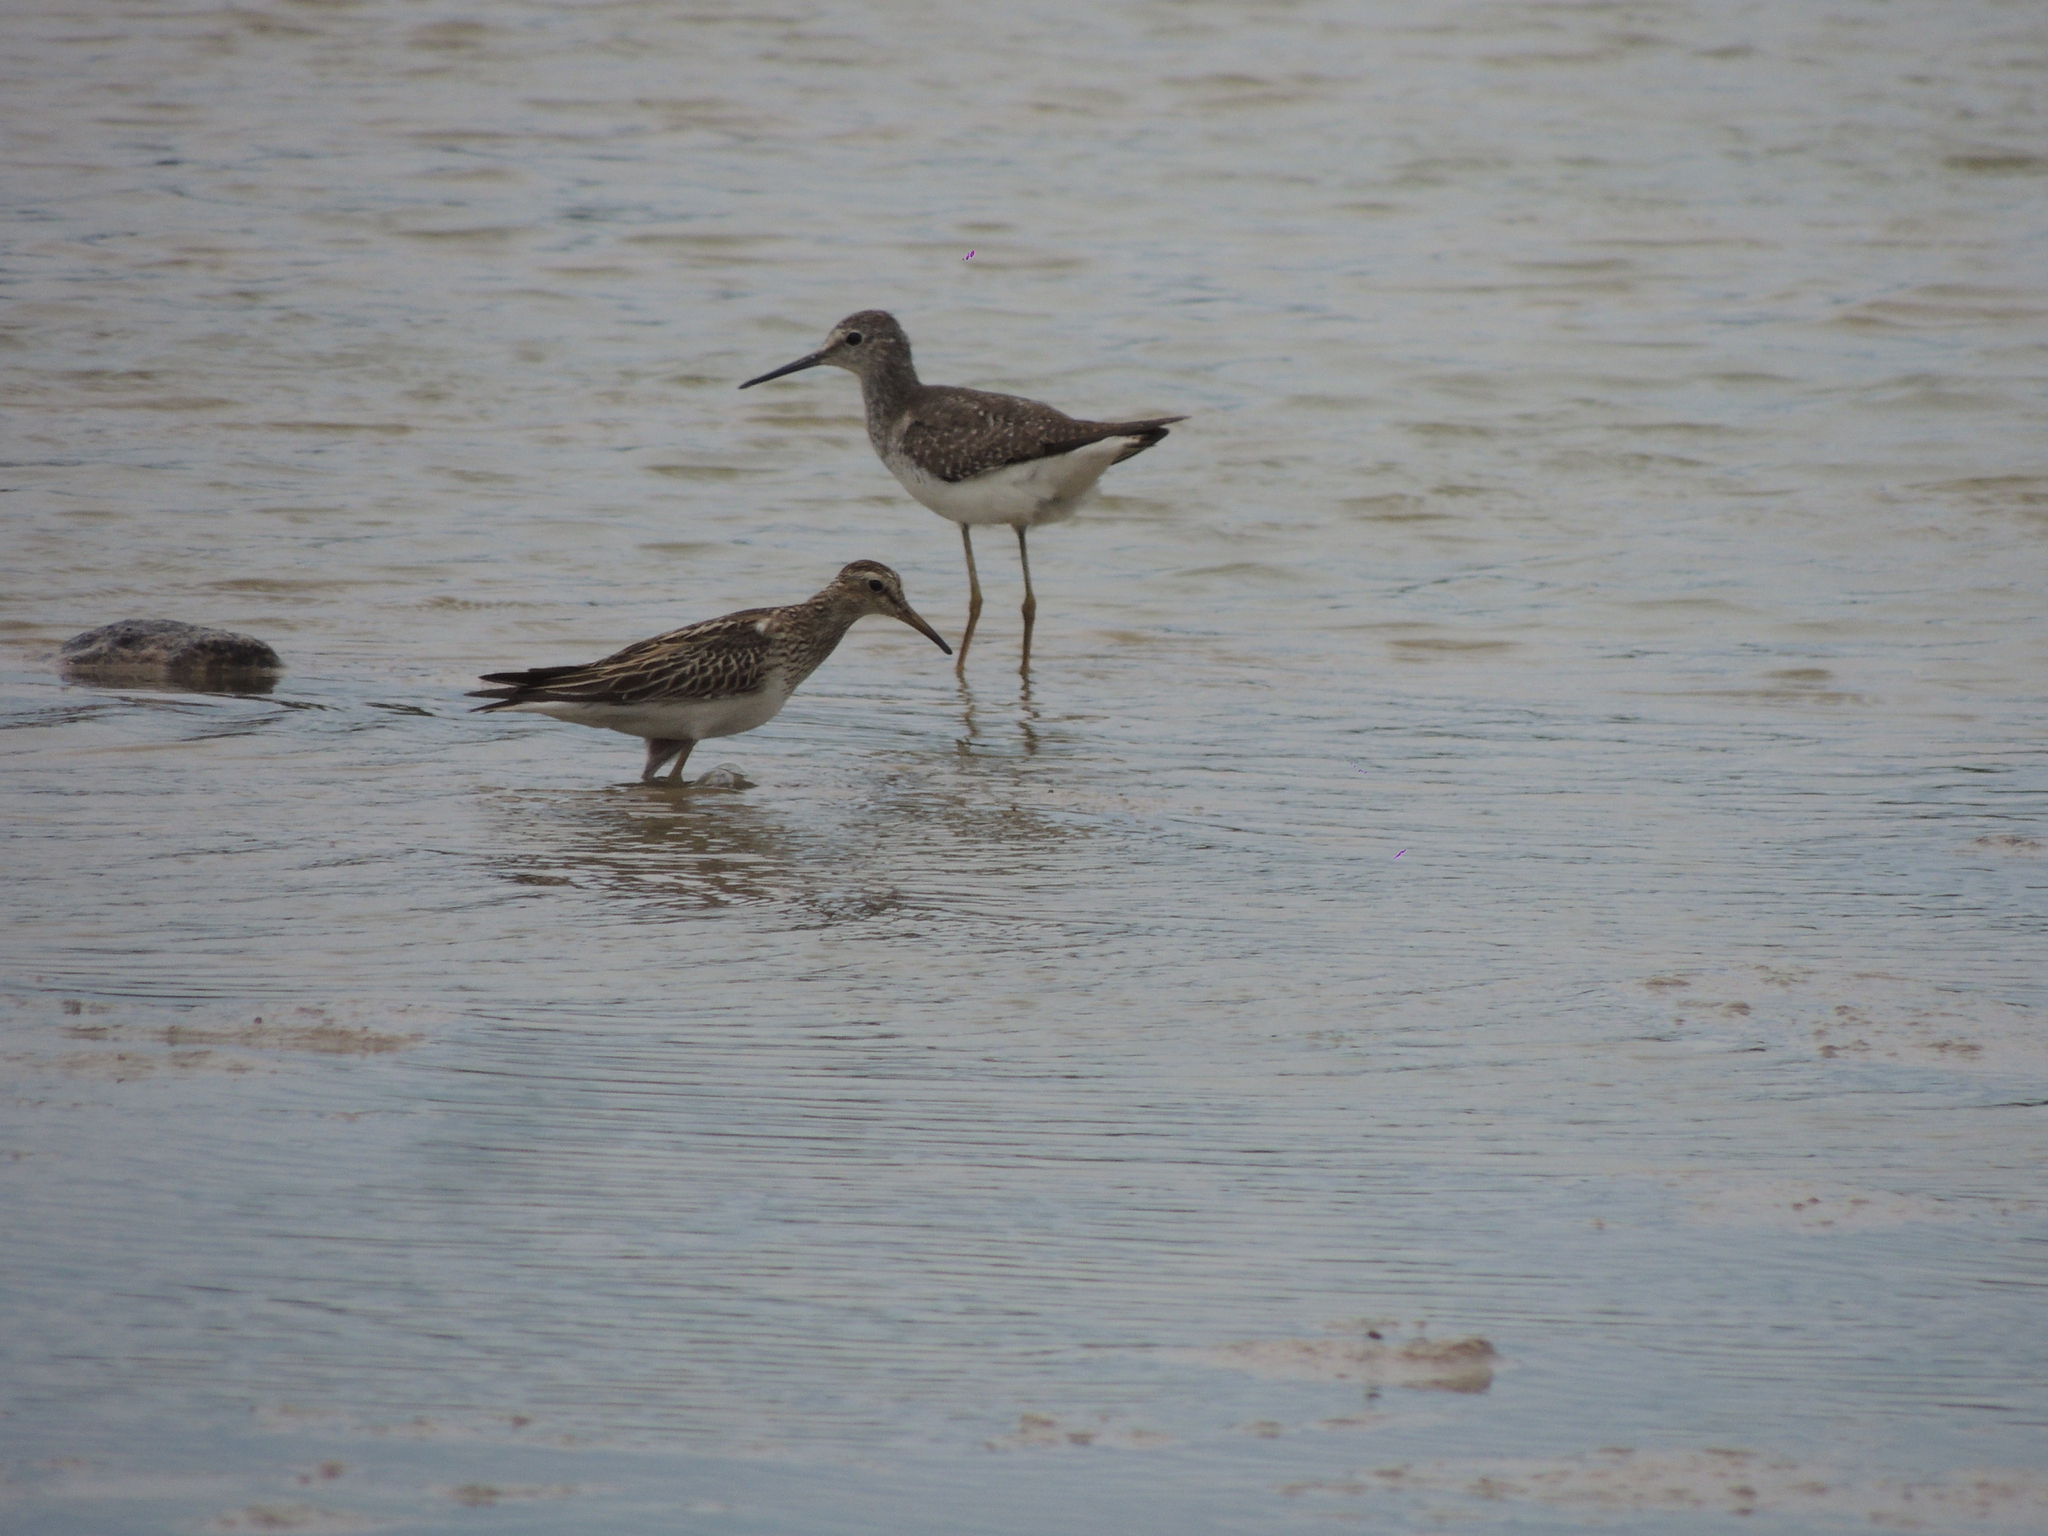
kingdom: Animalia
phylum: Chordata
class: Aves
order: Charadriiformes
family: Scolopacidae
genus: Calidris
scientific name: Calidris melanotos
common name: Pectoral sandpiper
